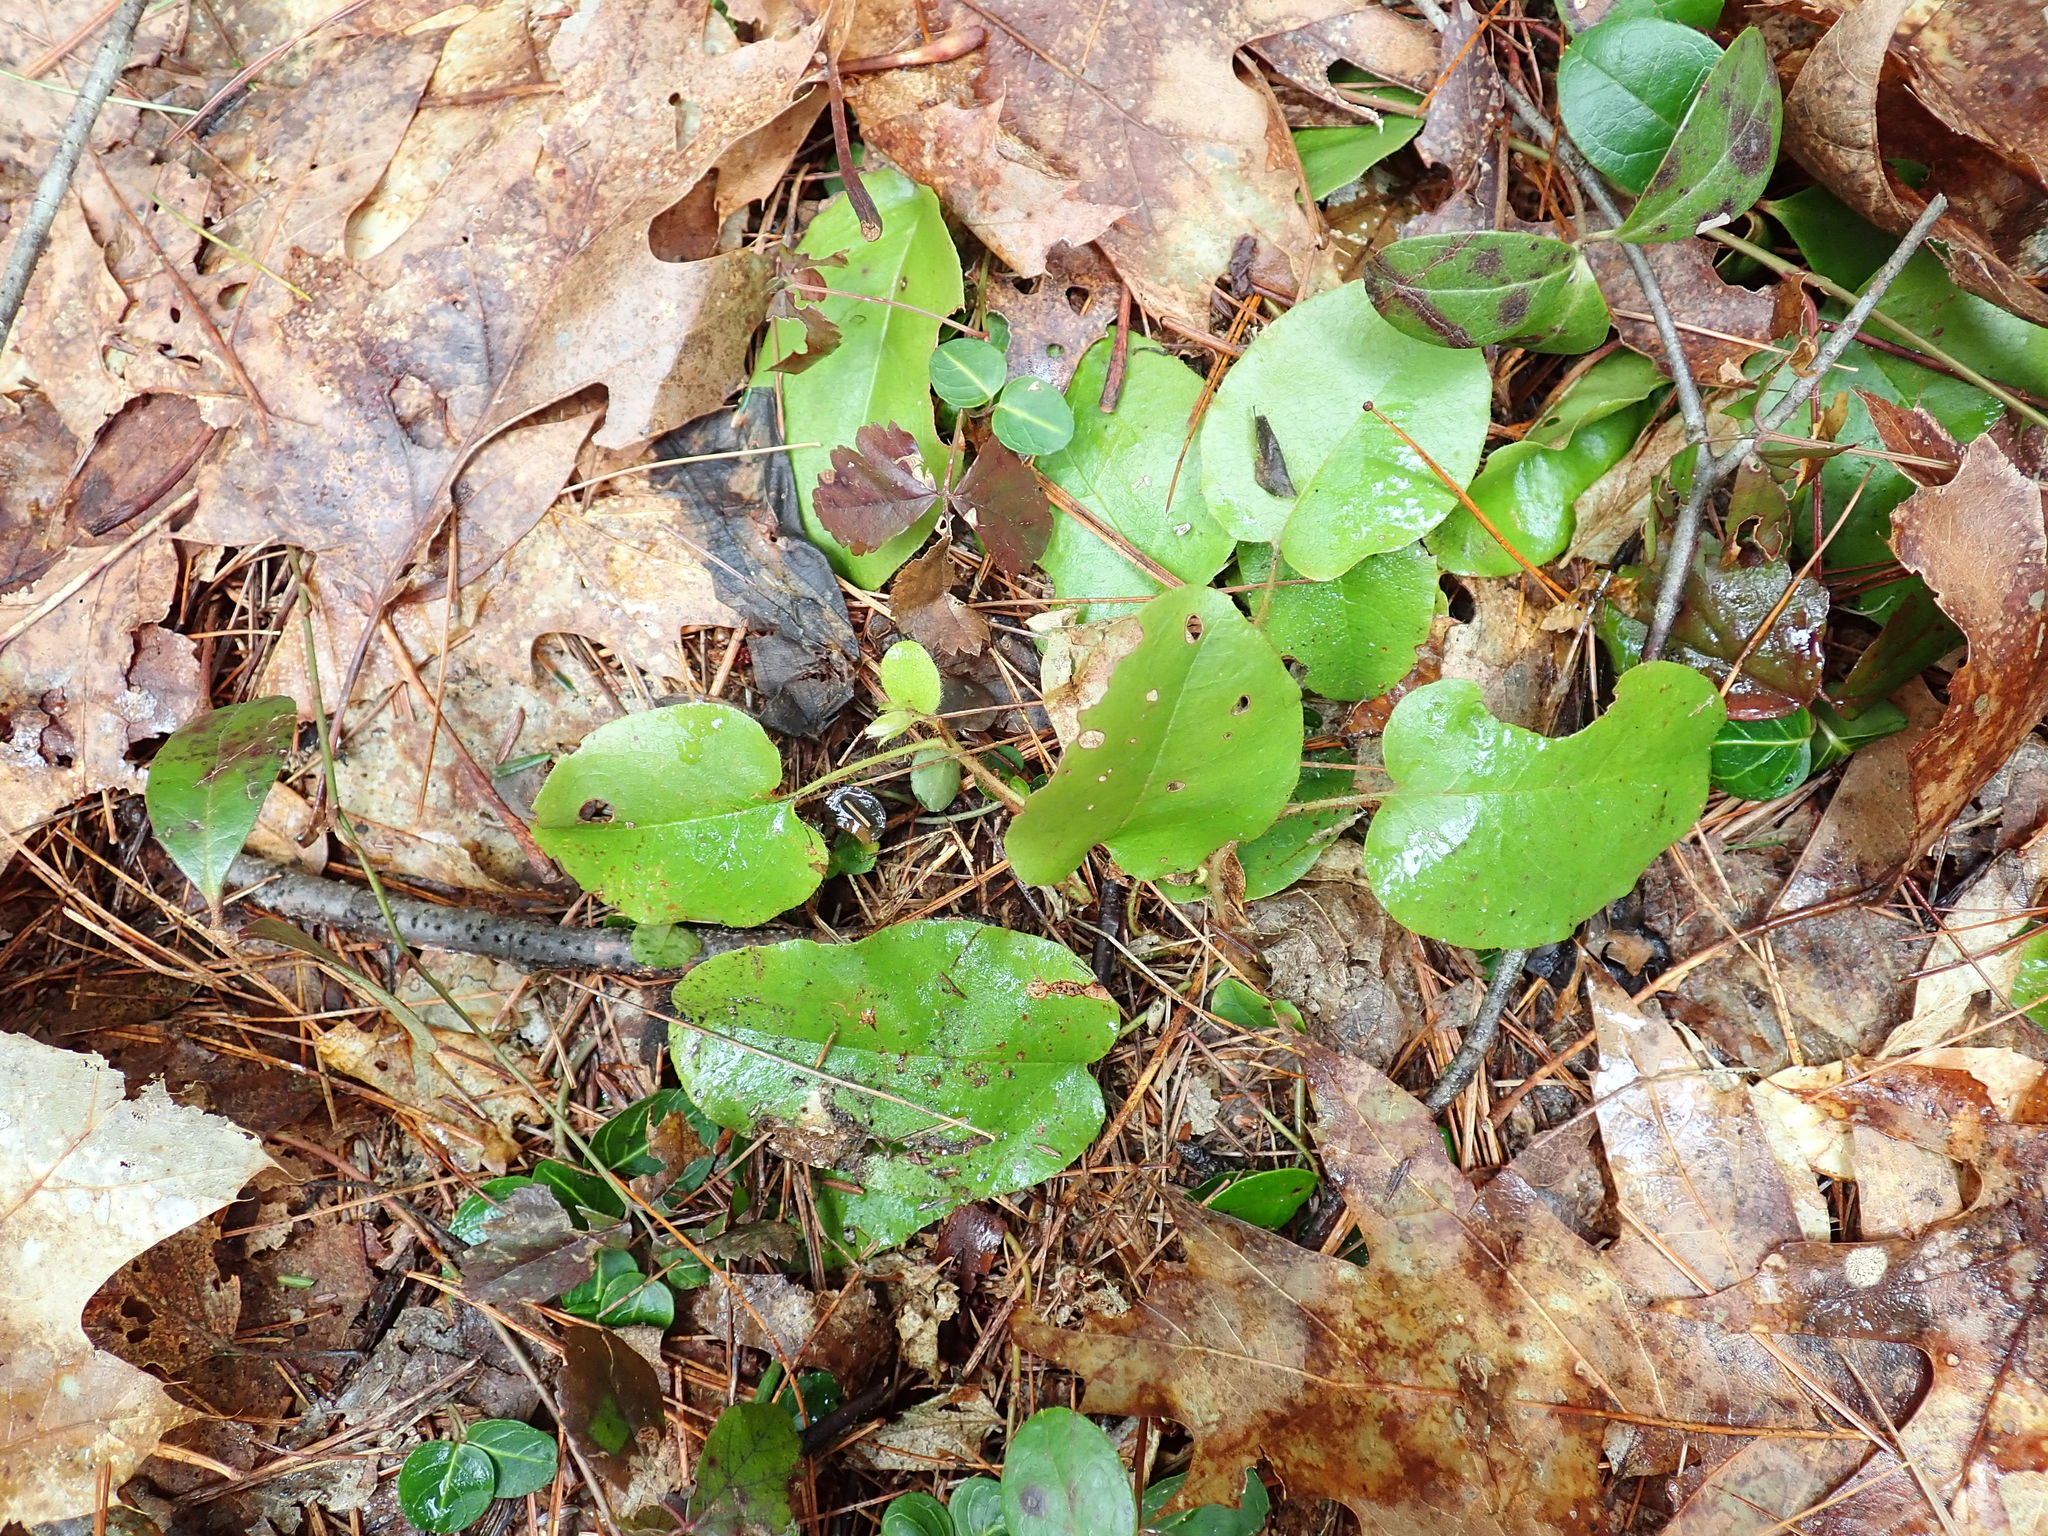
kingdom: Plantae
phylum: Tracheophyta
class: Magnoliopsida
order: Ericales
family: Ericaceae
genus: Epigaea
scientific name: Epigaea repens
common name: Gravelroot
